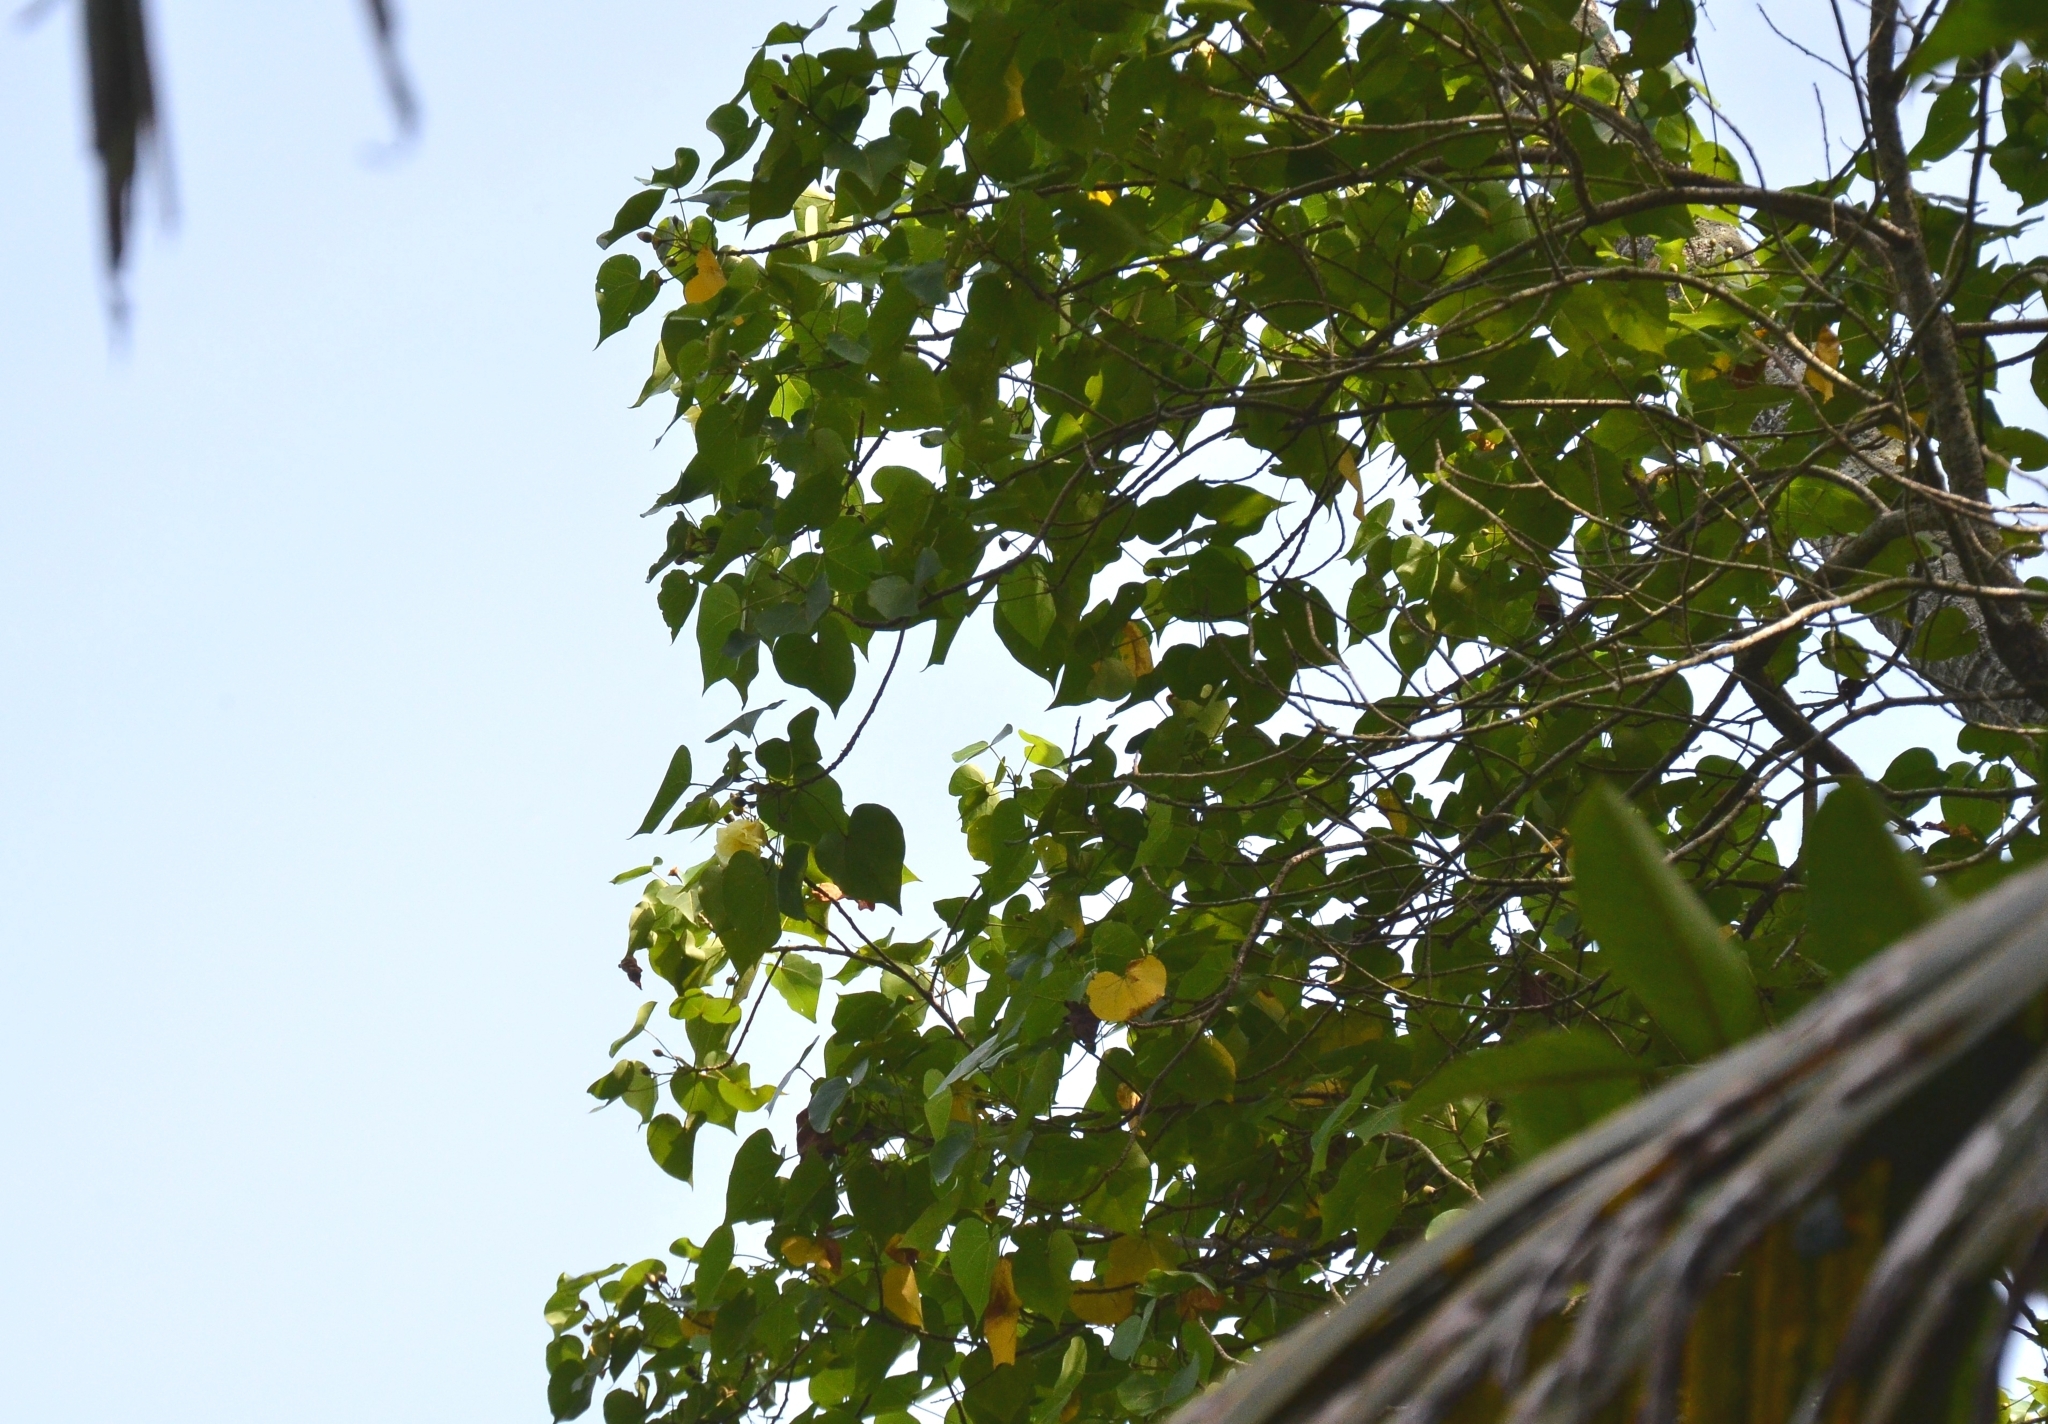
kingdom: Plantae
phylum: Tracheophyta
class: Magnoliopsida
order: Malvales
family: Malvaceae
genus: Thespesia
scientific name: Thespesia populnea
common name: Seaside mahoe
